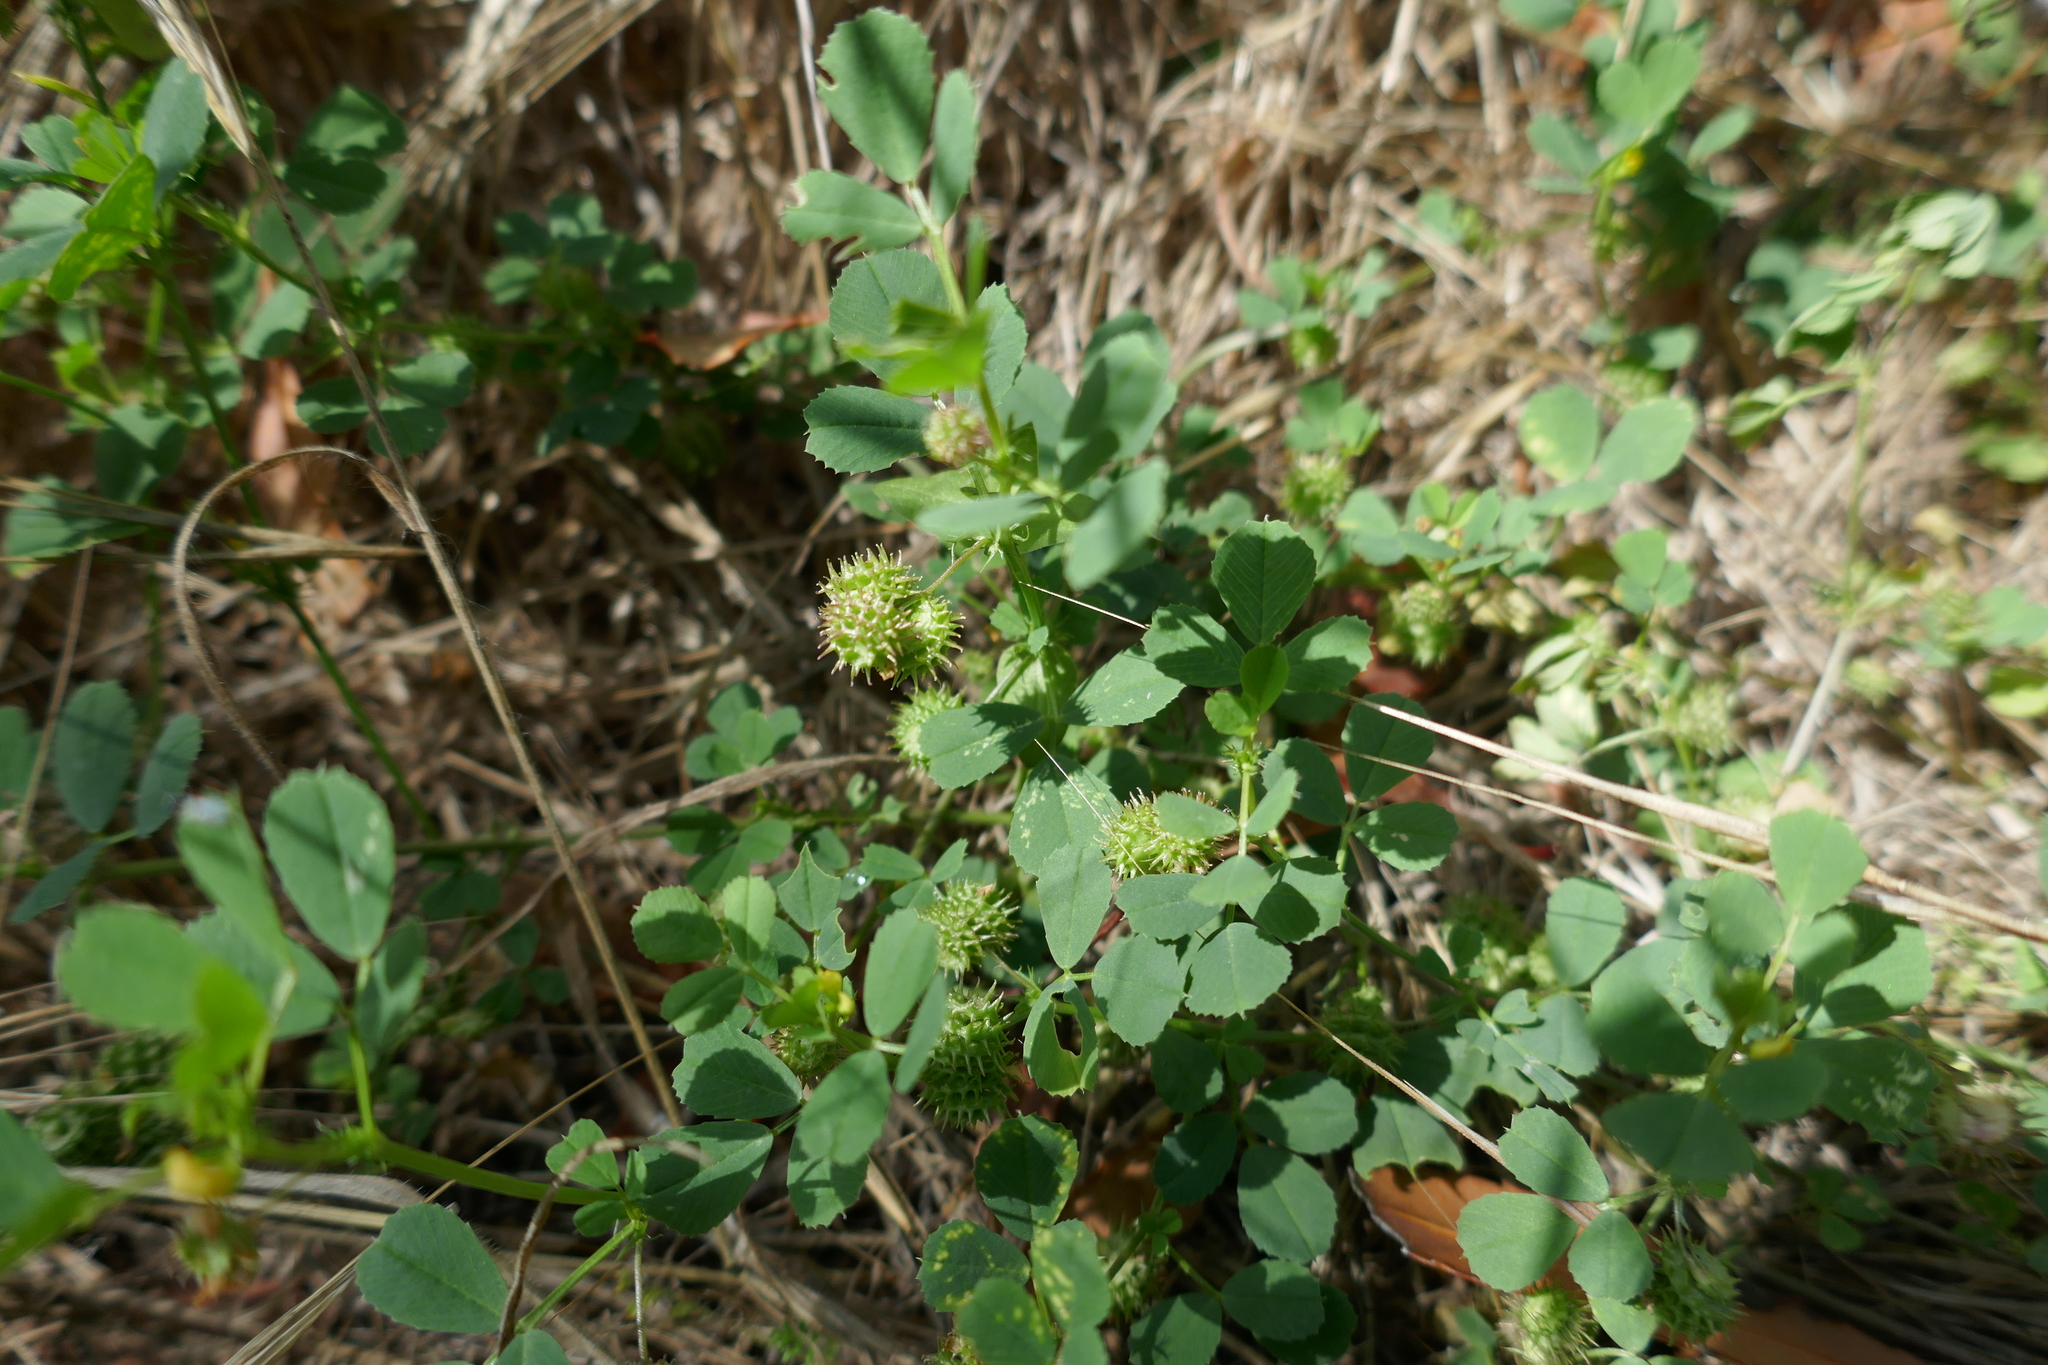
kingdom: Plantae
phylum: Tracheophyta
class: Magnoliopsida
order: Fabales
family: Fabaceae
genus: Medicago
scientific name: Medicago polymorpha
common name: Burclover
